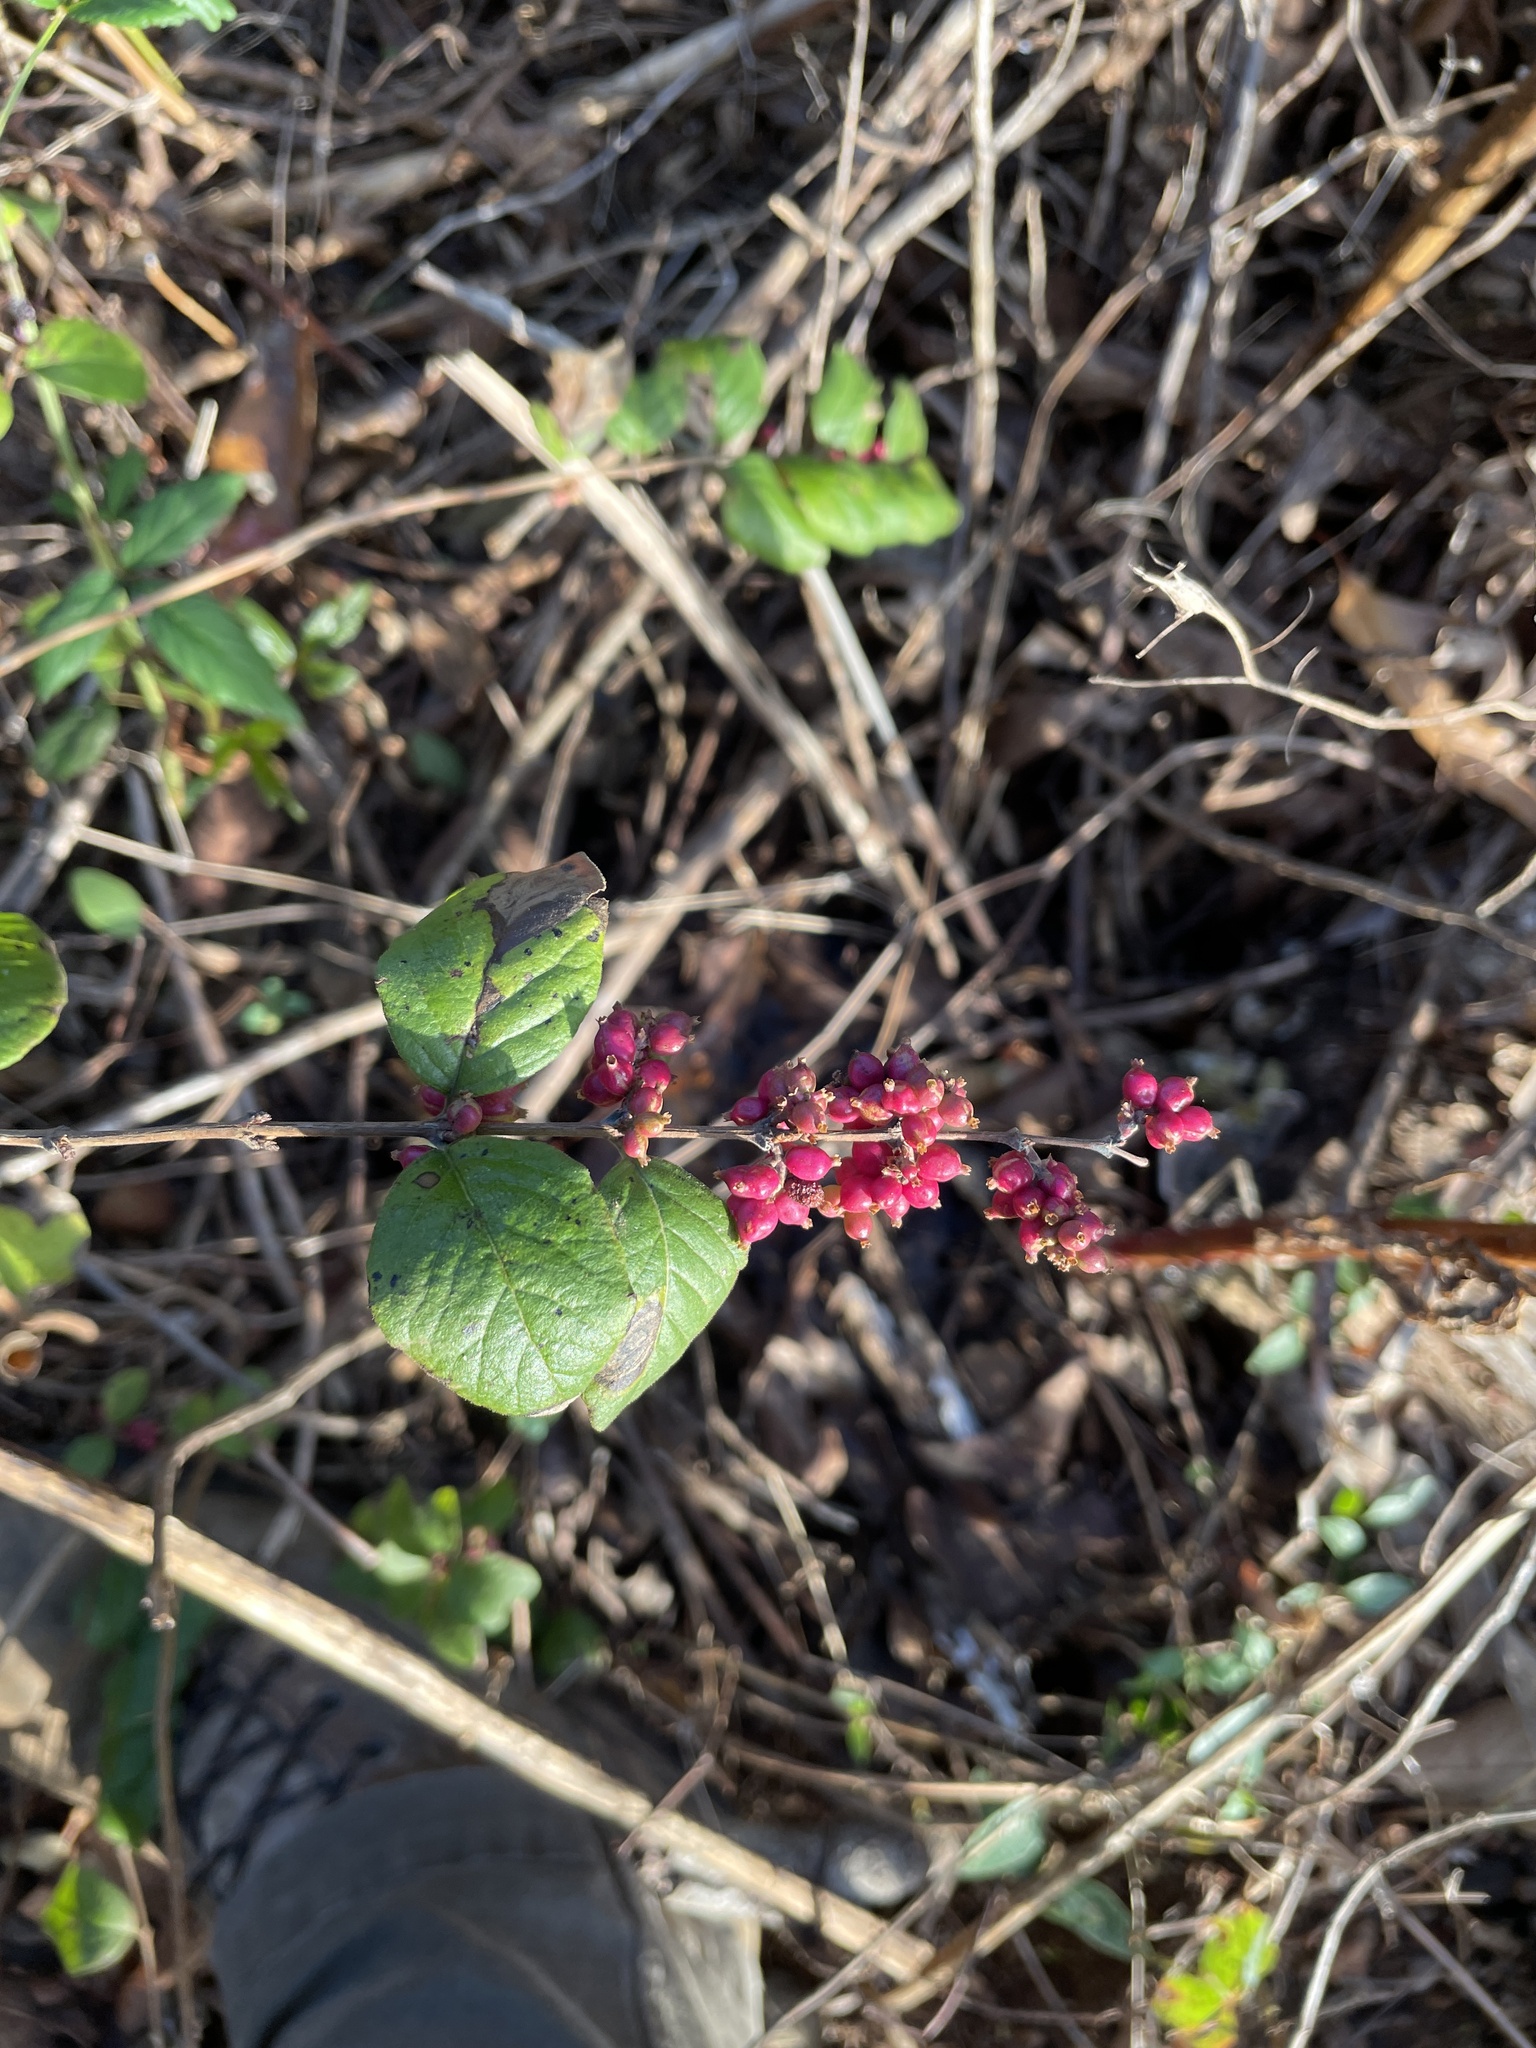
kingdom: Plantae
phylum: Tracheophyta
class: Magnoliopsida
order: Dipsacales
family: Caprifoliaceae
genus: Symphoricarpos
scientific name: Symphoricarpos orbiculatus
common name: Coralberry
